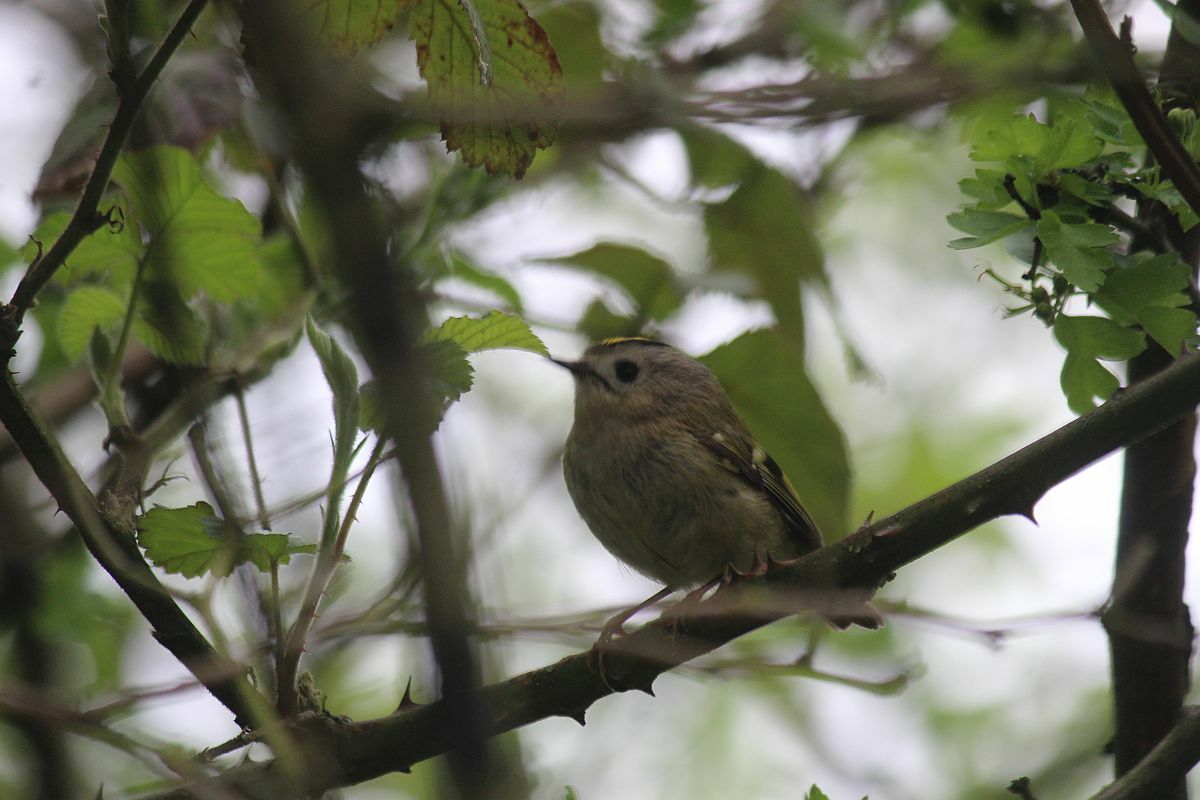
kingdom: Animalia
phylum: Chordata
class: Aves
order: Passeriformes
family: Regulidae
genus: Regulus
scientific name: Regulus regulus
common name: Goldcrest
